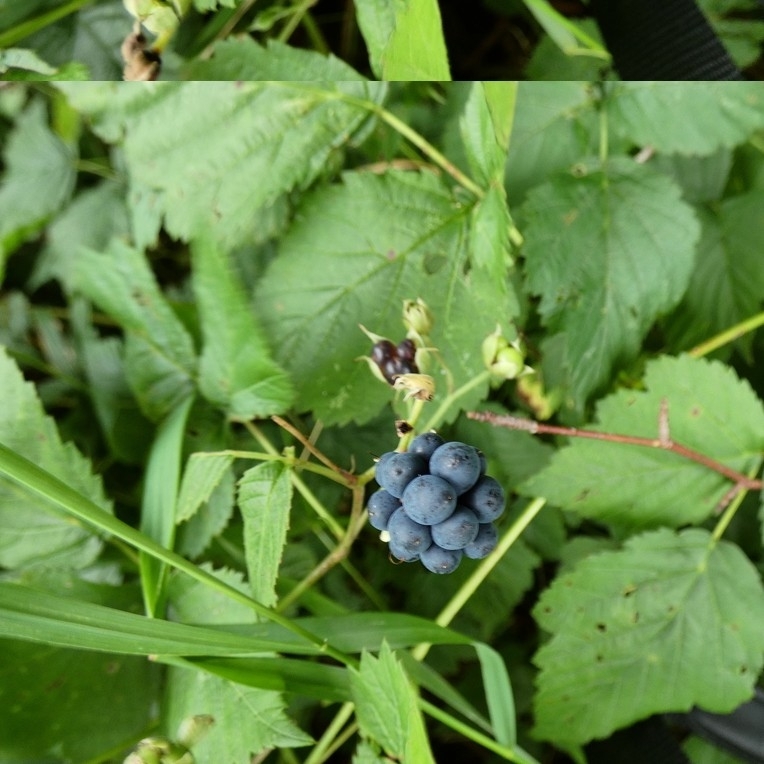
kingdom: Plantae
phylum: Tracheophyta
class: Magnoliopsida
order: Rosales
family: Rosaceae
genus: Rubus
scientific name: Rubus caesius
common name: Dewberry
